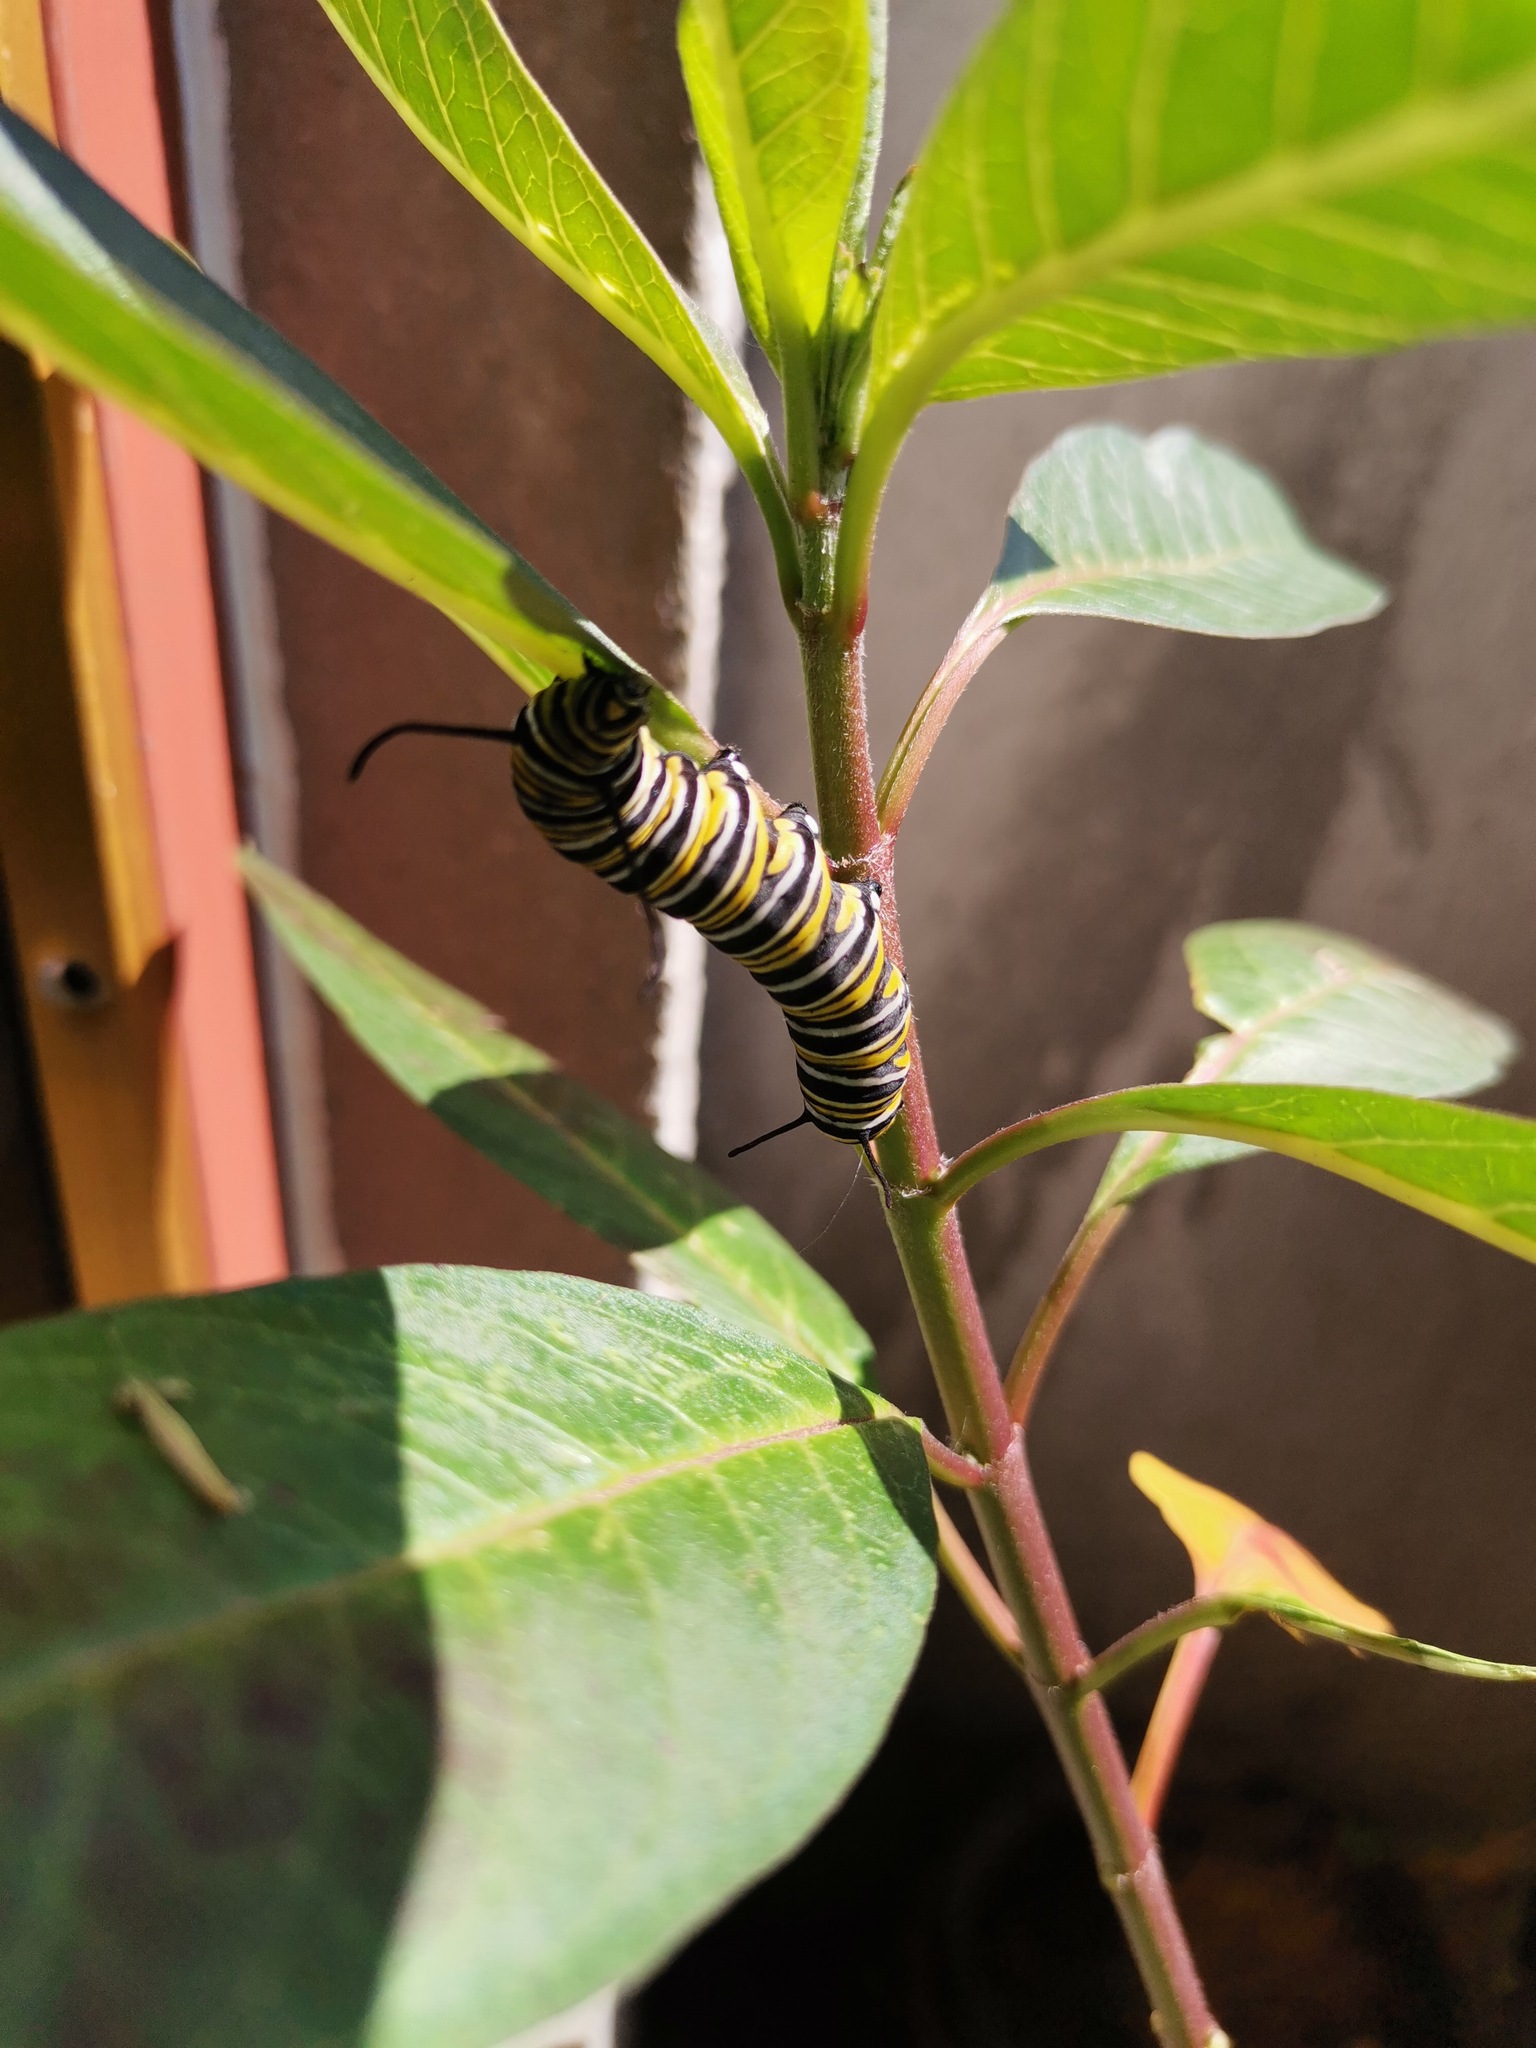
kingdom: Animalia
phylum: Arthropoda
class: Insecta
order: Lepidoptera
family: Nymphalidae
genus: Danaus
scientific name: Danaus plexippus
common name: Monarch
